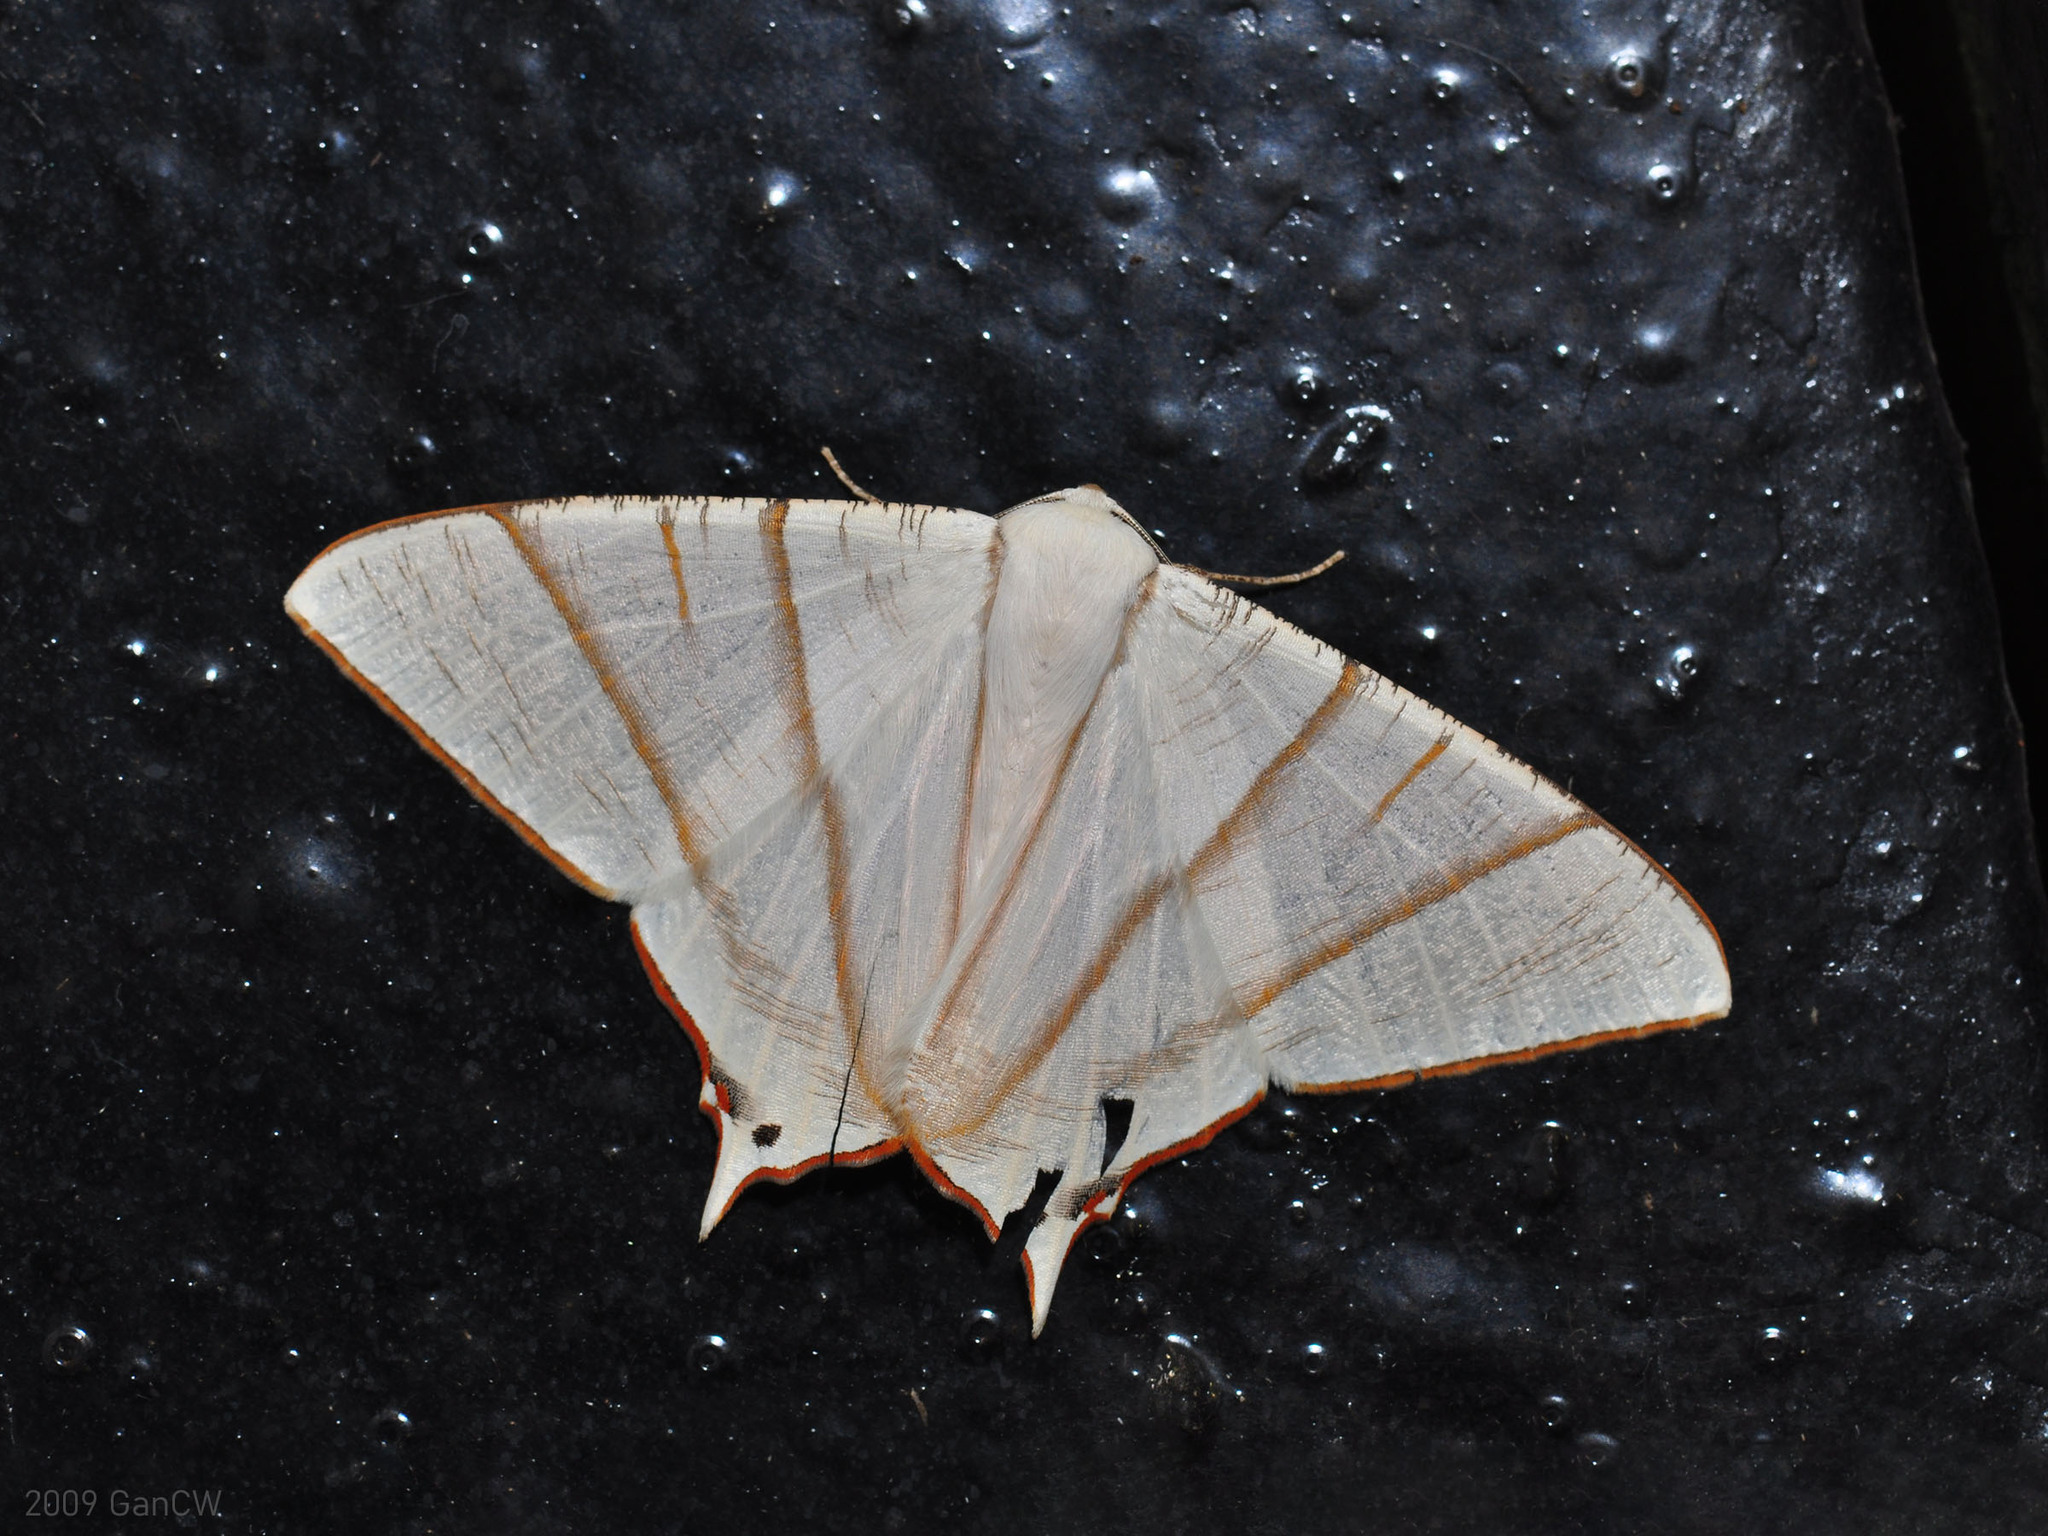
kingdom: Animalia
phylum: Arthropoda
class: Insecta
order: Lepidoptera
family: Geometridae
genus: Ourapteryx
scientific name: Ourapteryx picticaudata
